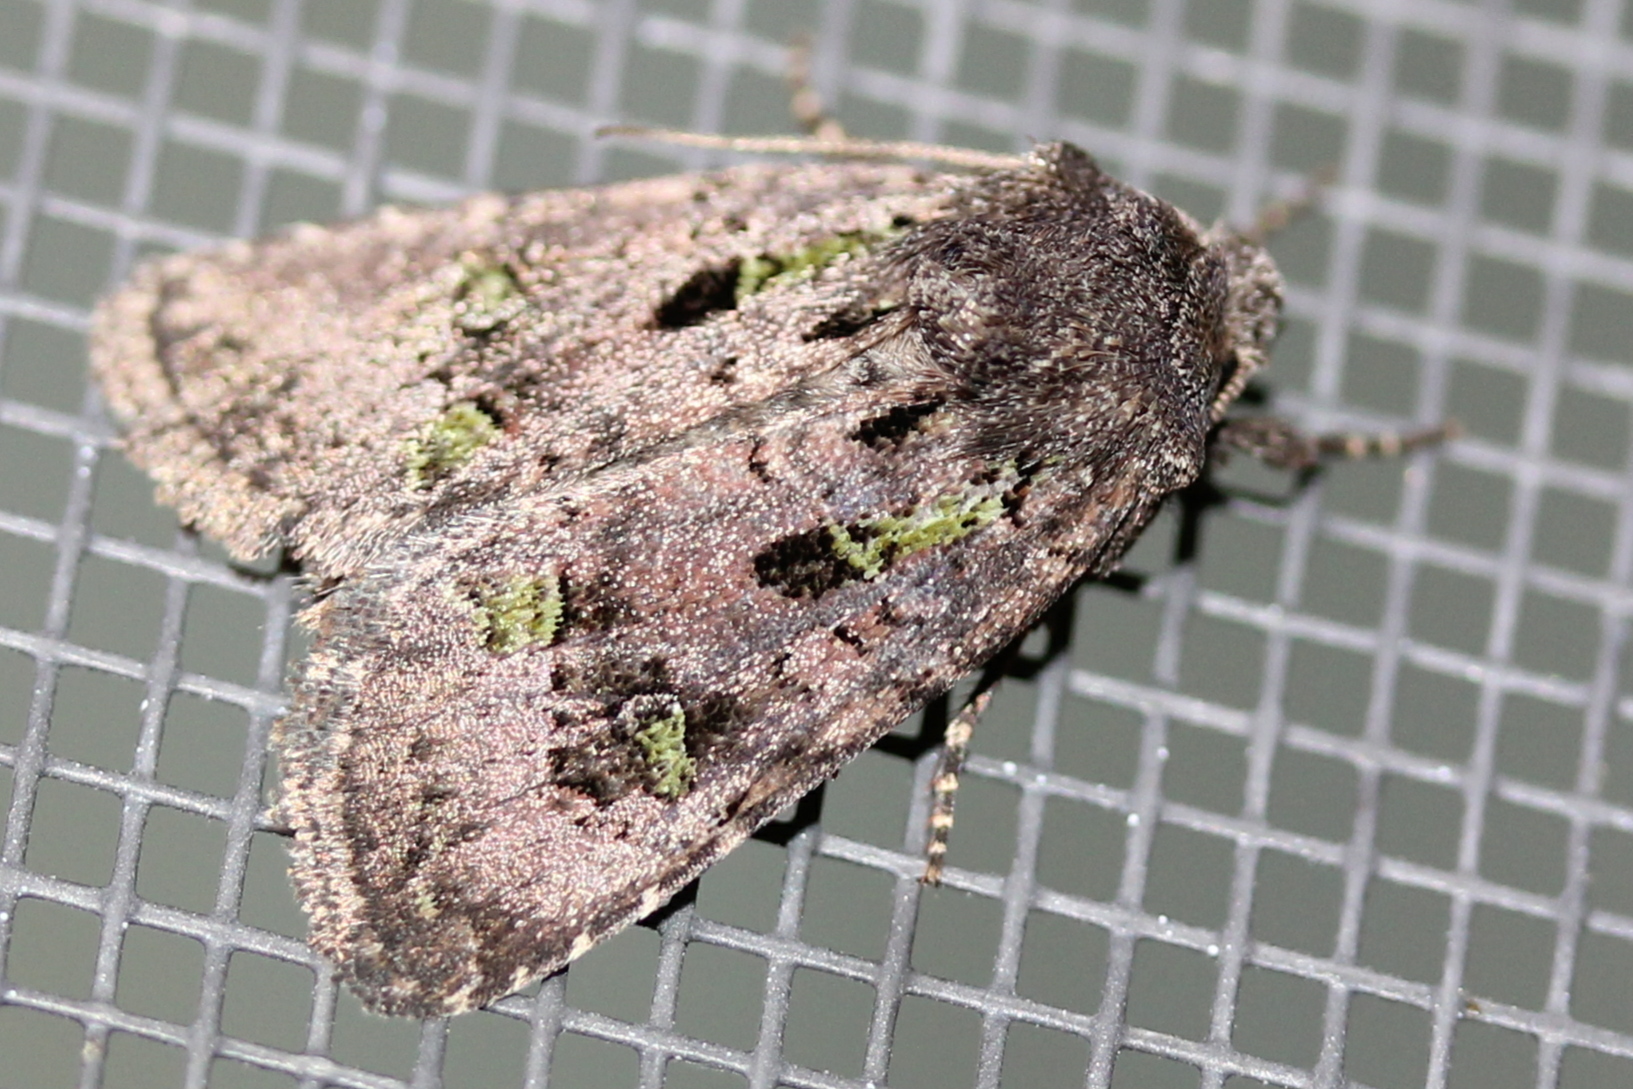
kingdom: Animalia
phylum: Arthropoda
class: Insecta
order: Lepidoptera
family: Noctuidae
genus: Lacinipolia
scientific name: Lacinipolia renigera
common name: Kidney-spotted minor
